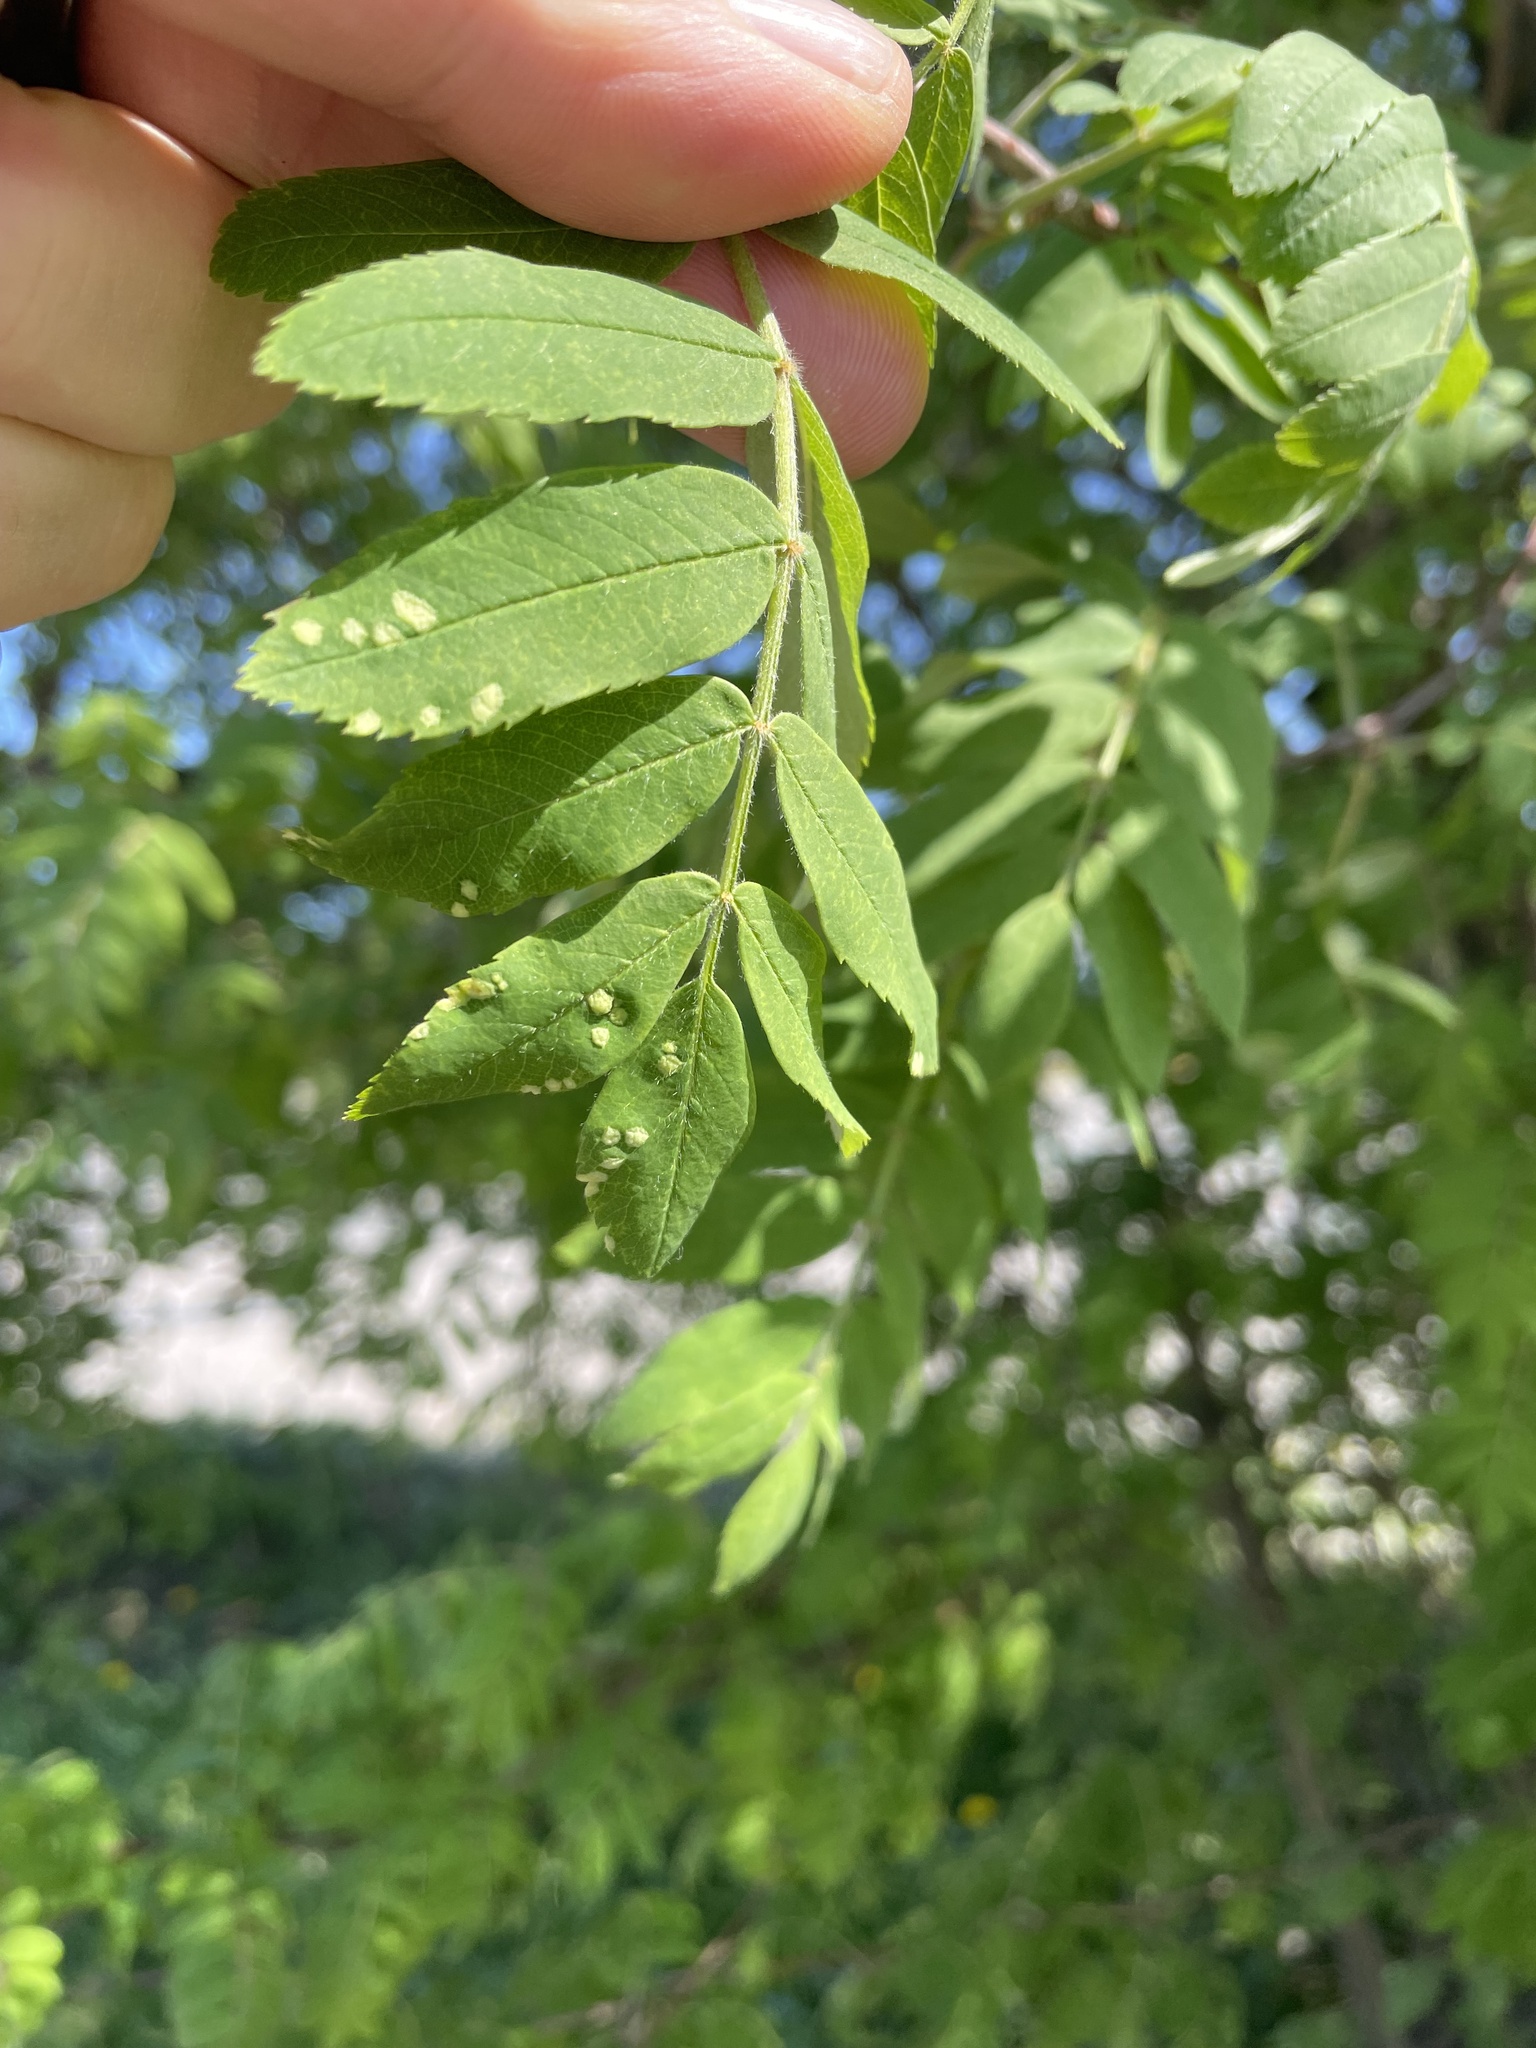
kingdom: Plantae
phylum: Tracheophyta
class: Magnoliopsida
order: Rosales
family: Rosaceae
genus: Sorbus
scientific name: Sorbus aucuparia
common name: Rowan
